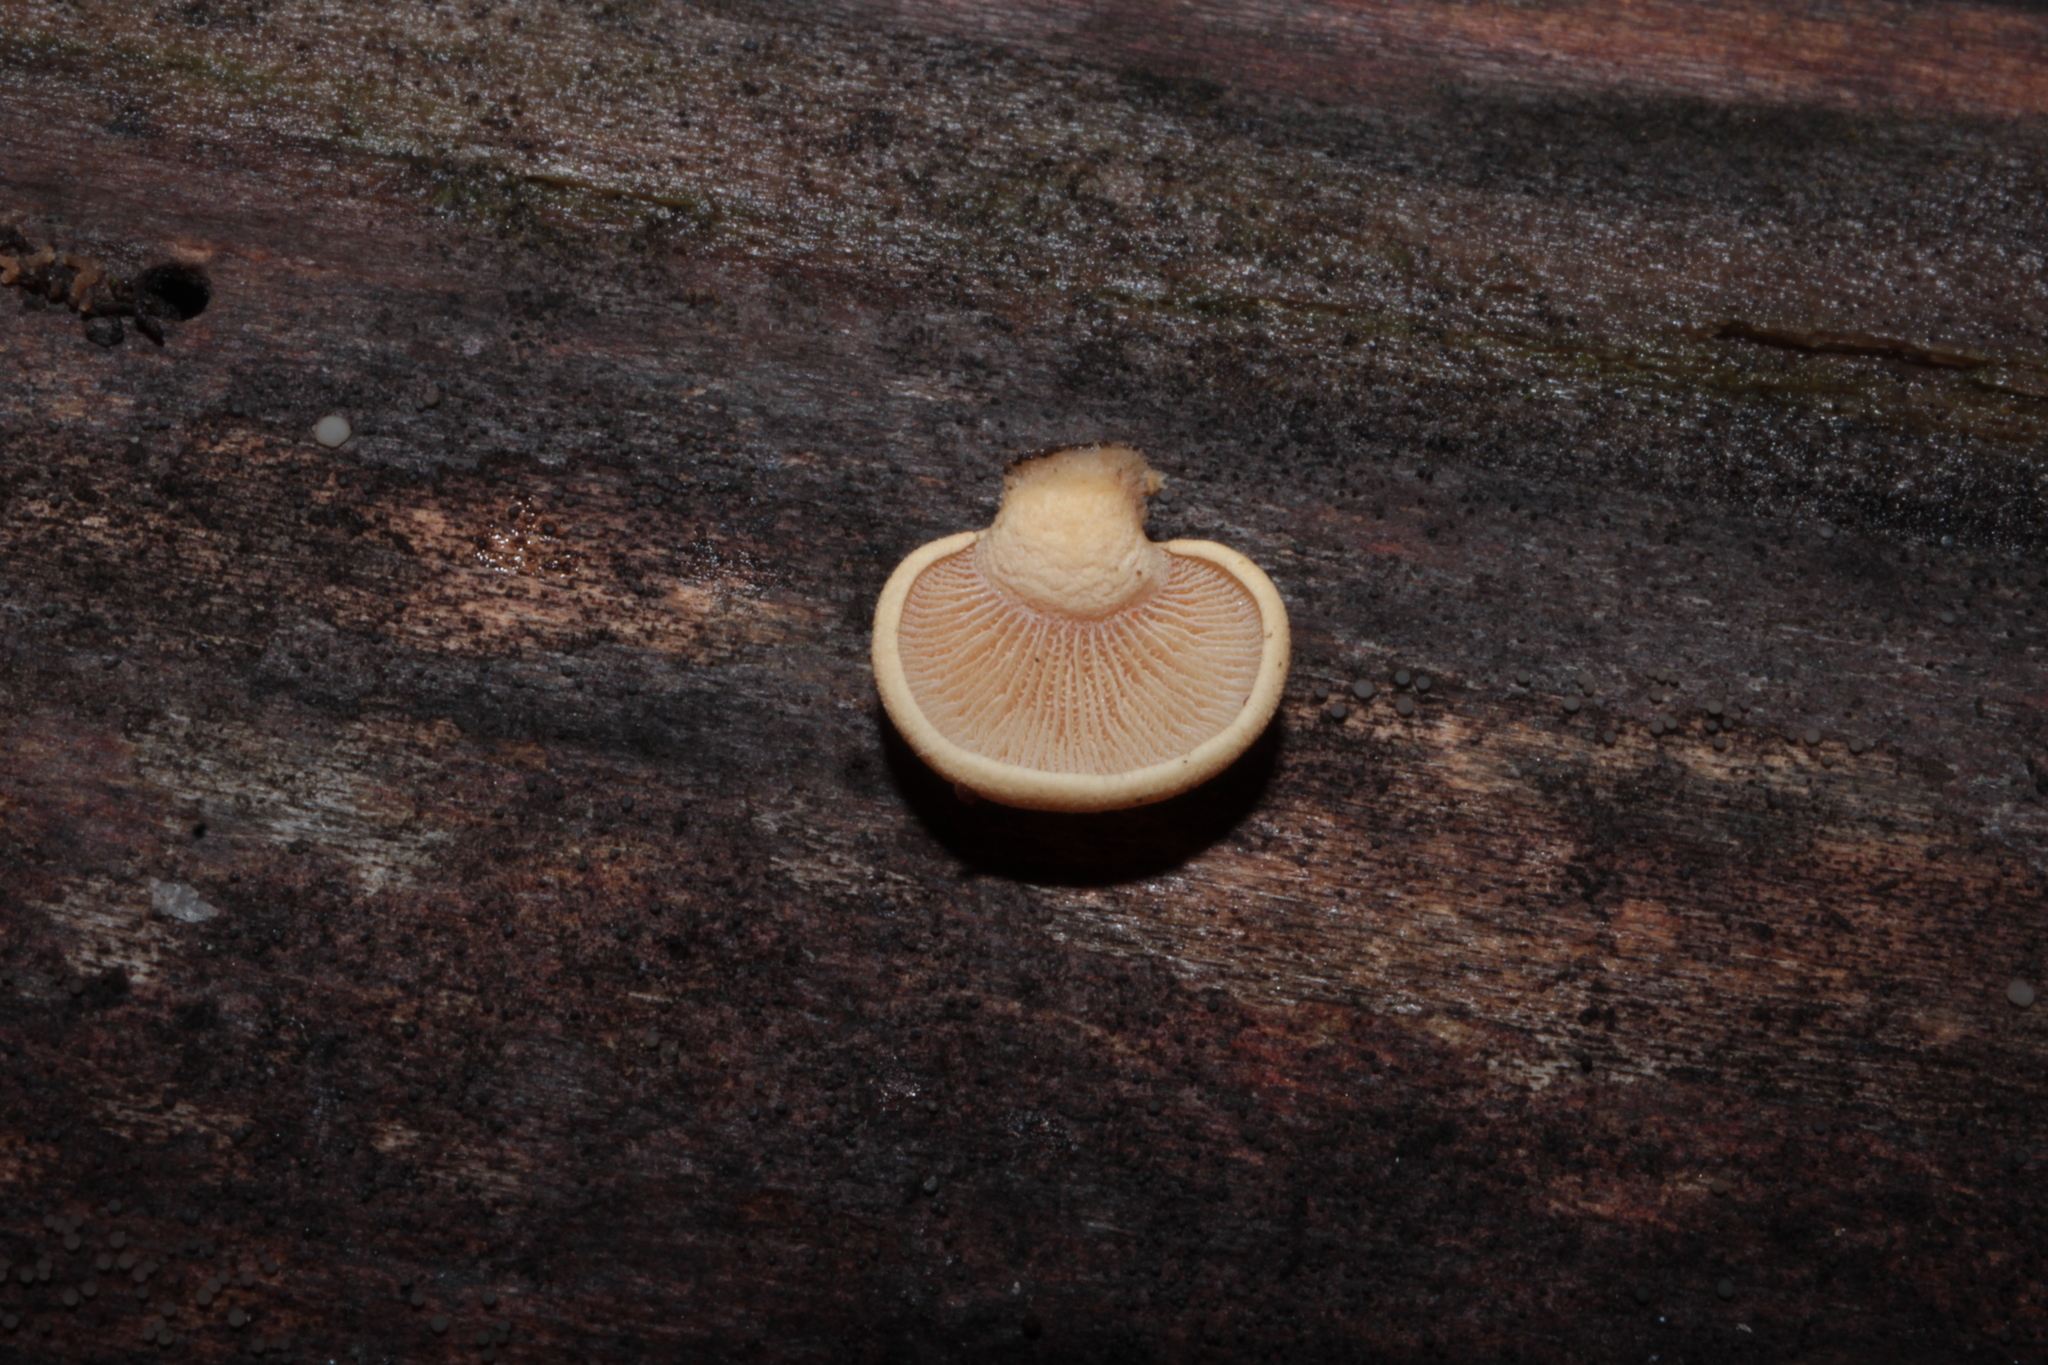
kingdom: Fungi
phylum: Basidiomycota
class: Agaricomycetes
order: Agaricales
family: Mycenaceae
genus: Panellus
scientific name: Panellus stipticus
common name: Bitter oysterling
